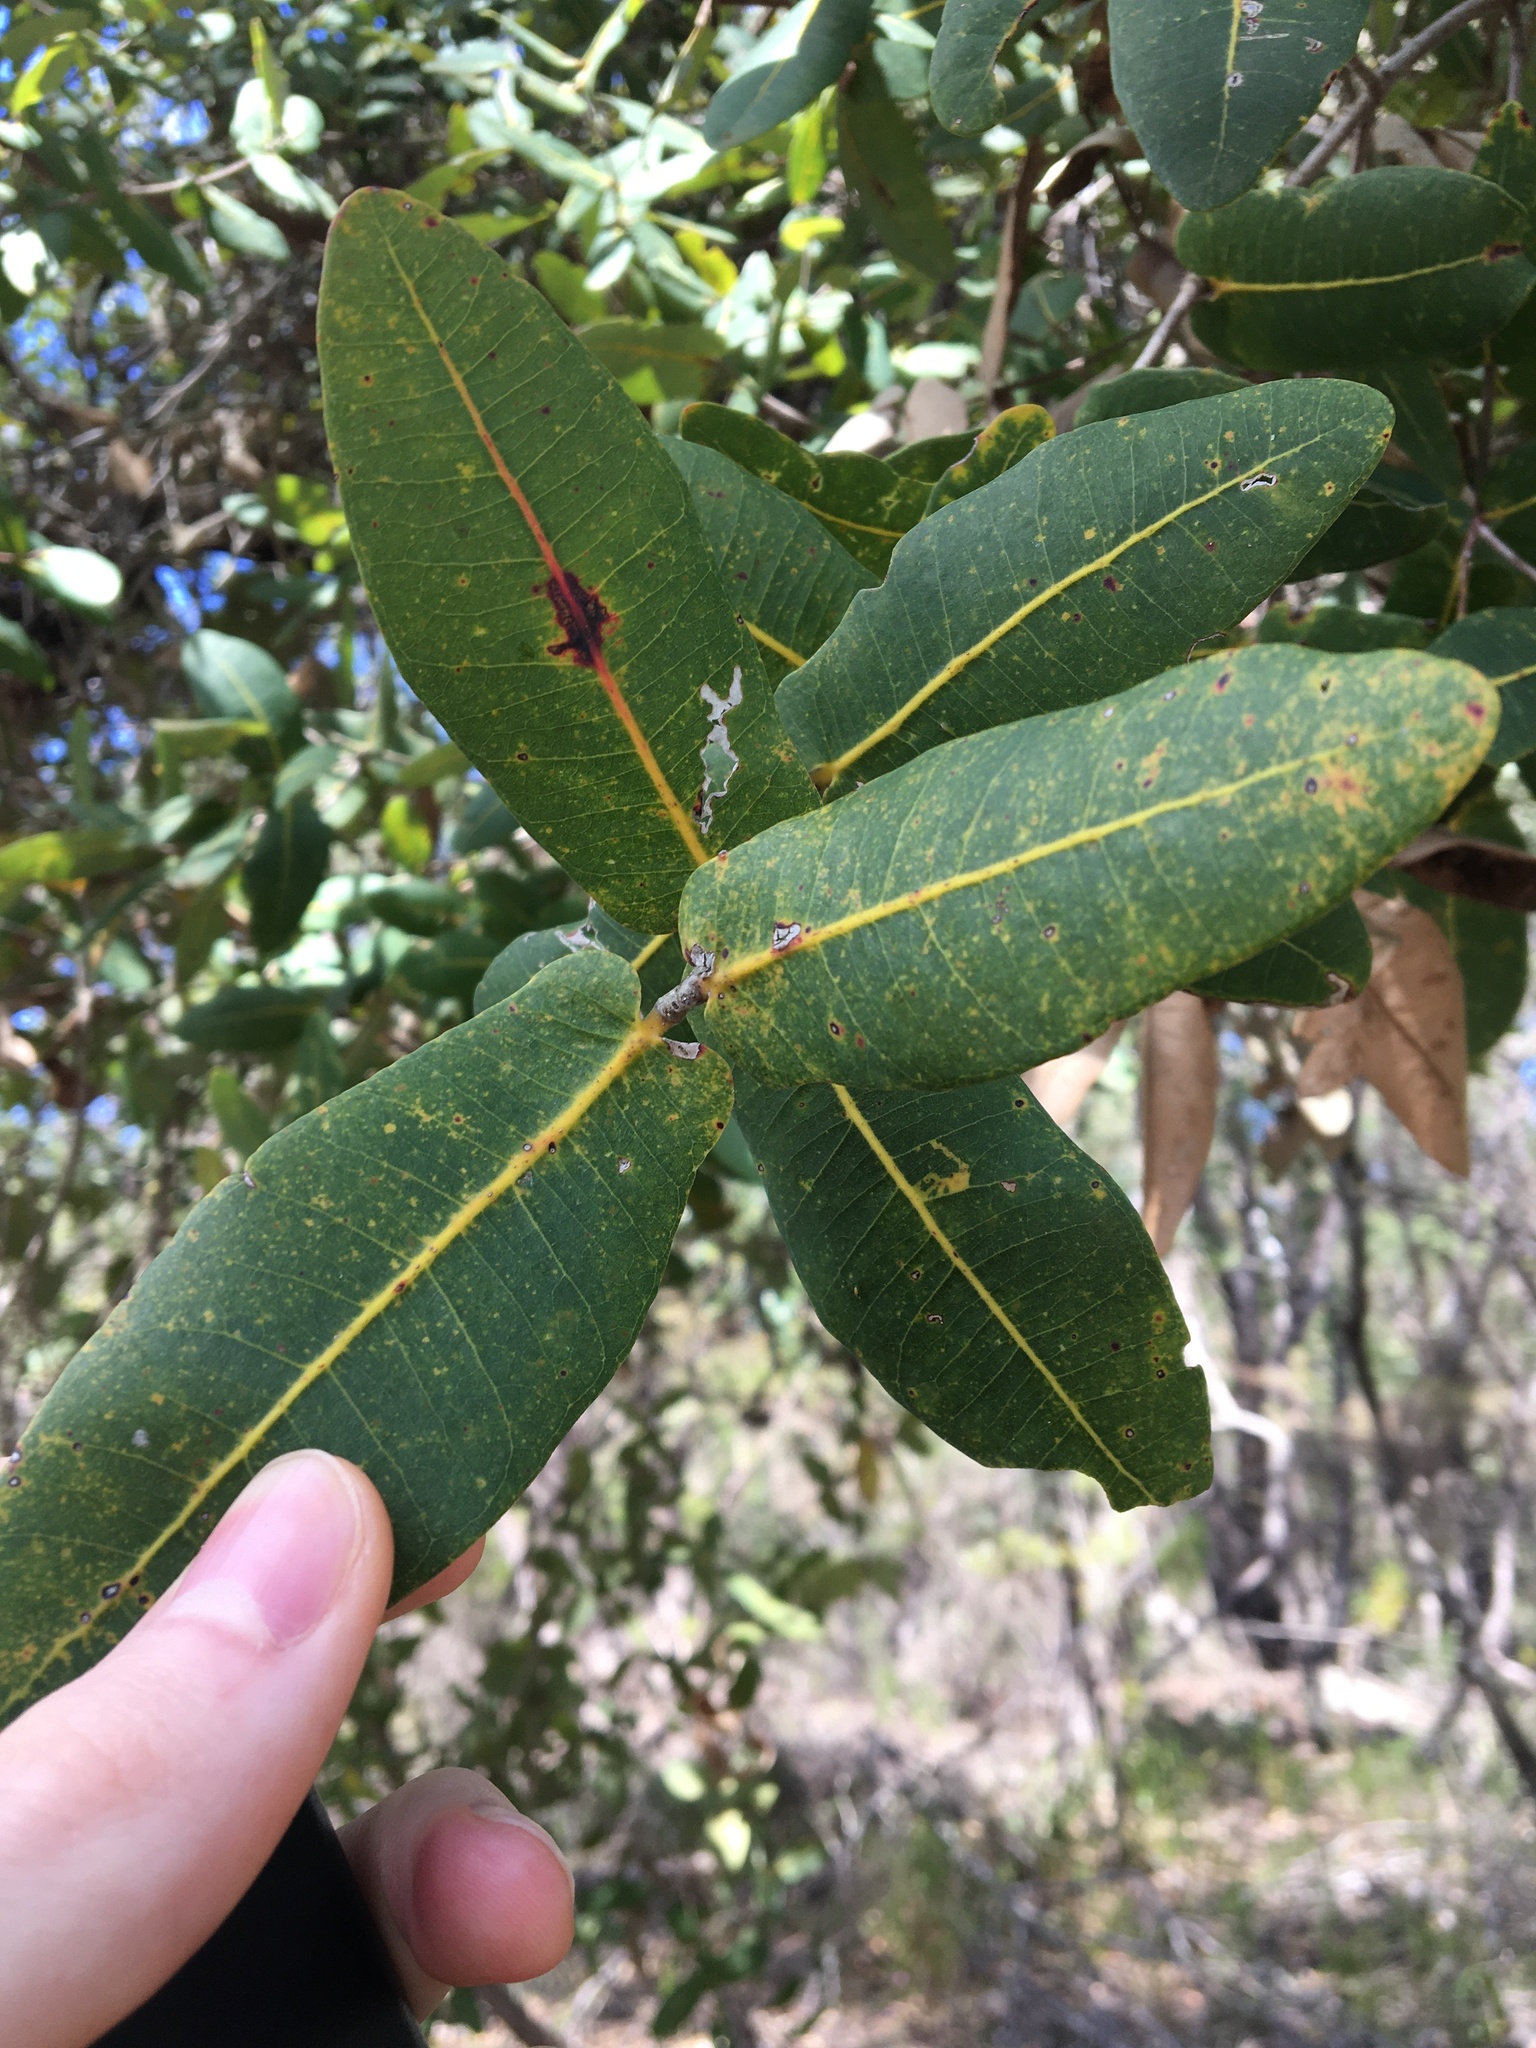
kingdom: Plantae
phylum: Tracheophyta
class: Magnoliopsida
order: Myrtales
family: Myrtaceae
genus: Angophora
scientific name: Angophora hispida
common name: Dwarf-apple
